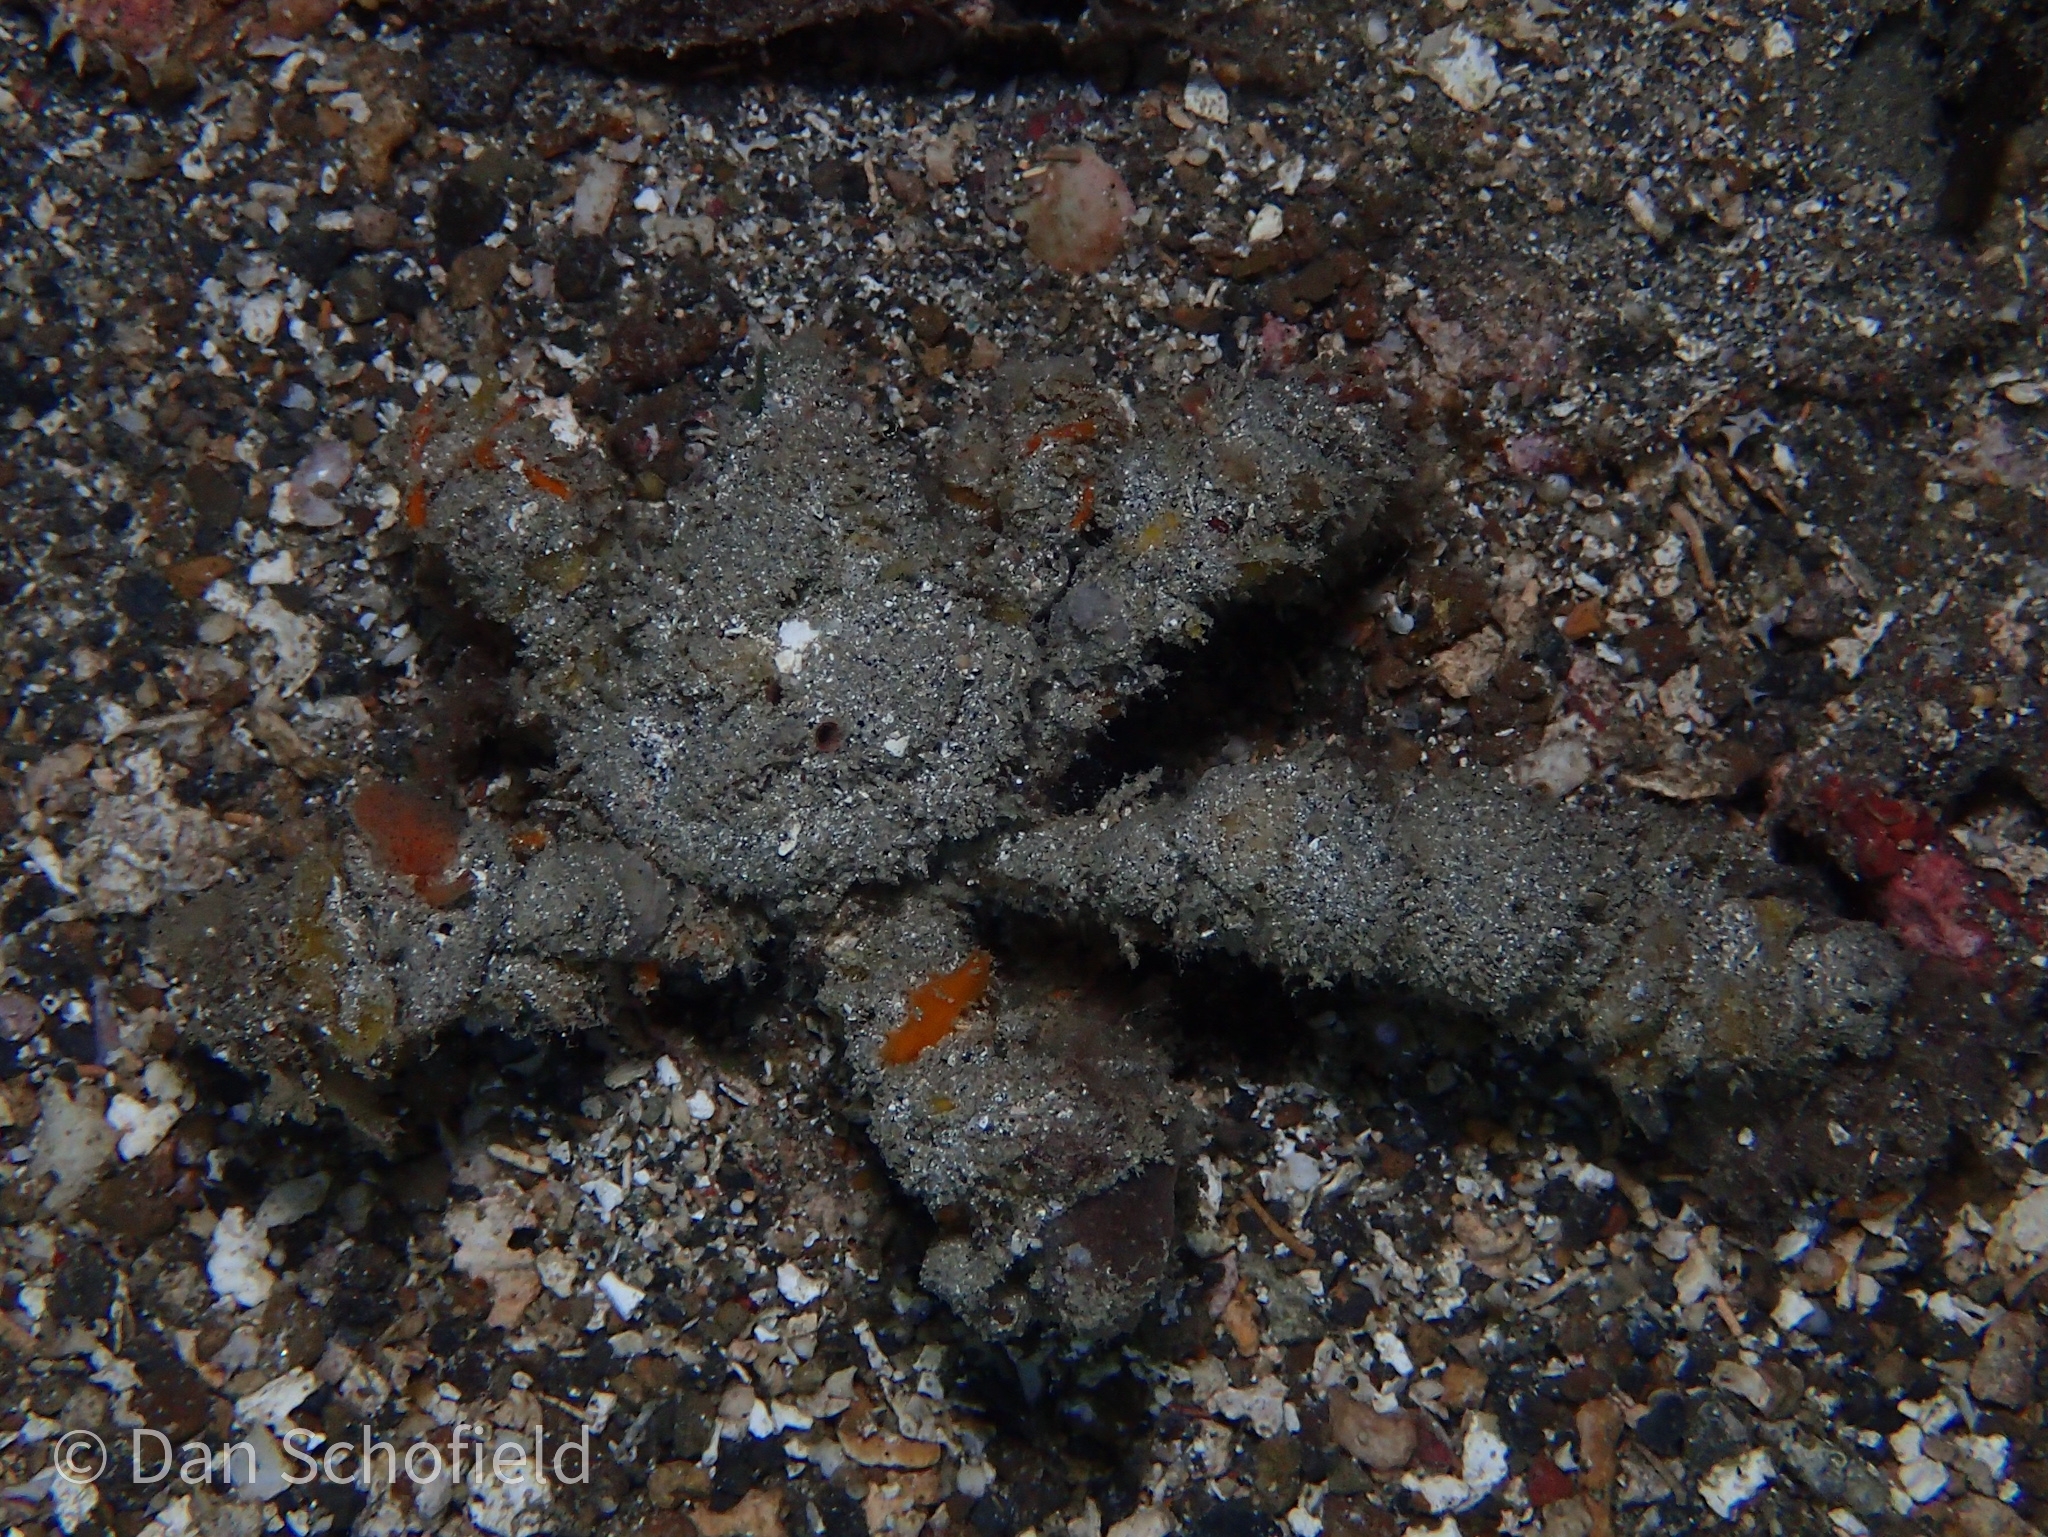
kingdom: Animalia
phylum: Arthropoda
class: Malacostraca
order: Decapoda
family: Inachidae
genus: Camposcia
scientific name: Camposcia retusa
